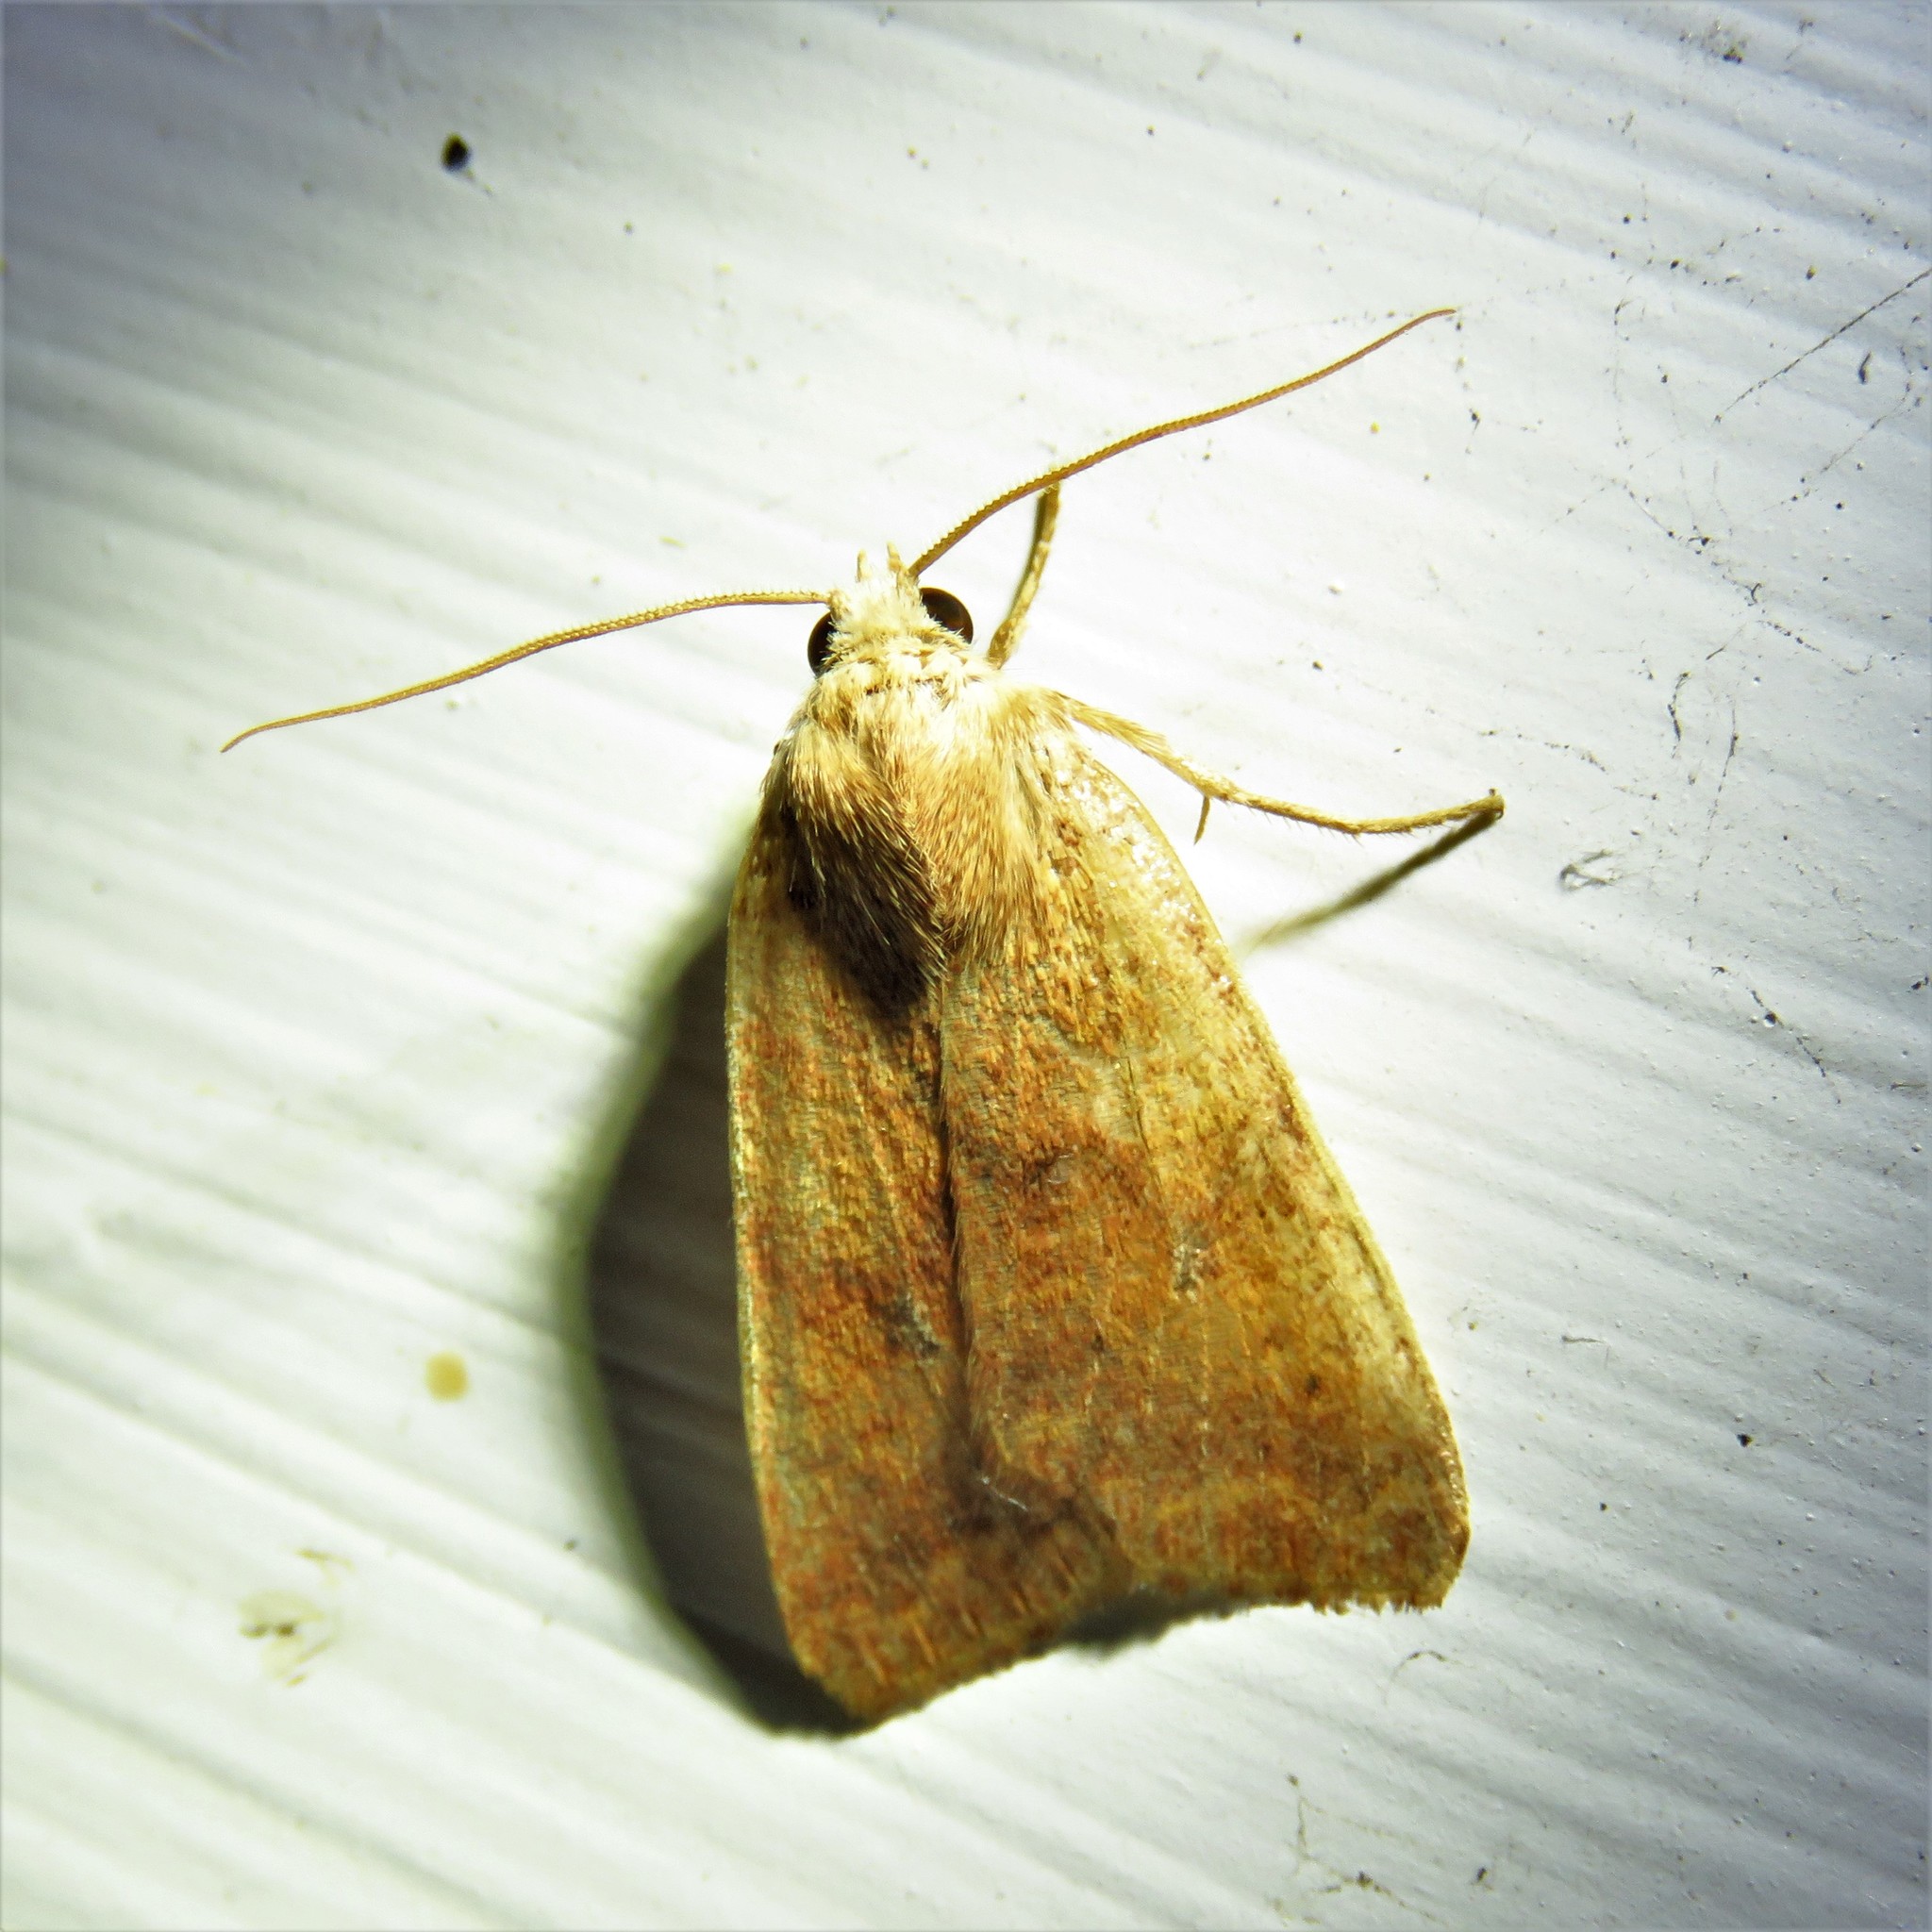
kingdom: Animalia
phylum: Arthropoda
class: Insecta
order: Lepidoptera
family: Noctuidae
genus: Agrochola
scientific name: Agrochola bicolorago
